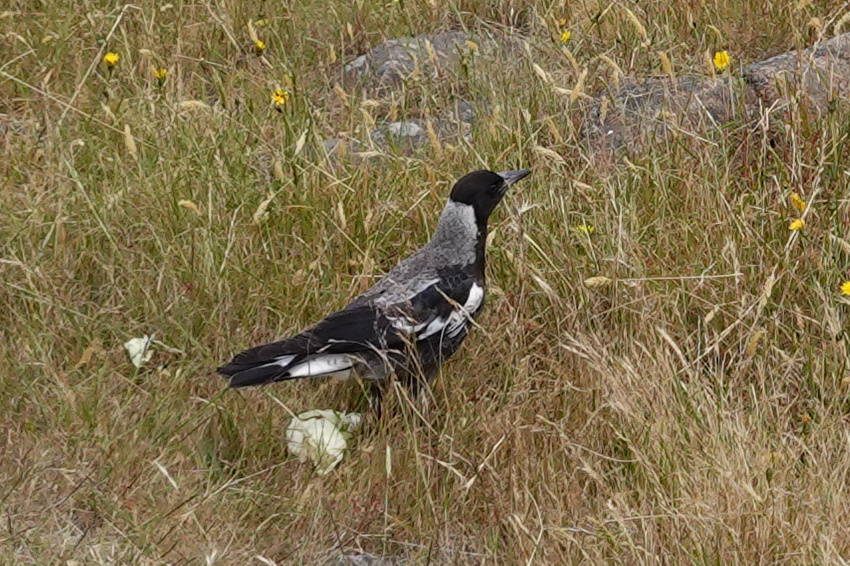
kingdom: Animalia
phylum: Chordata
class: Aves
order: Passeriformes
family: Cracticidae
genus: Gymnorhina
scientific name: Gymnorhina tibicen
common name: Australian magpie
